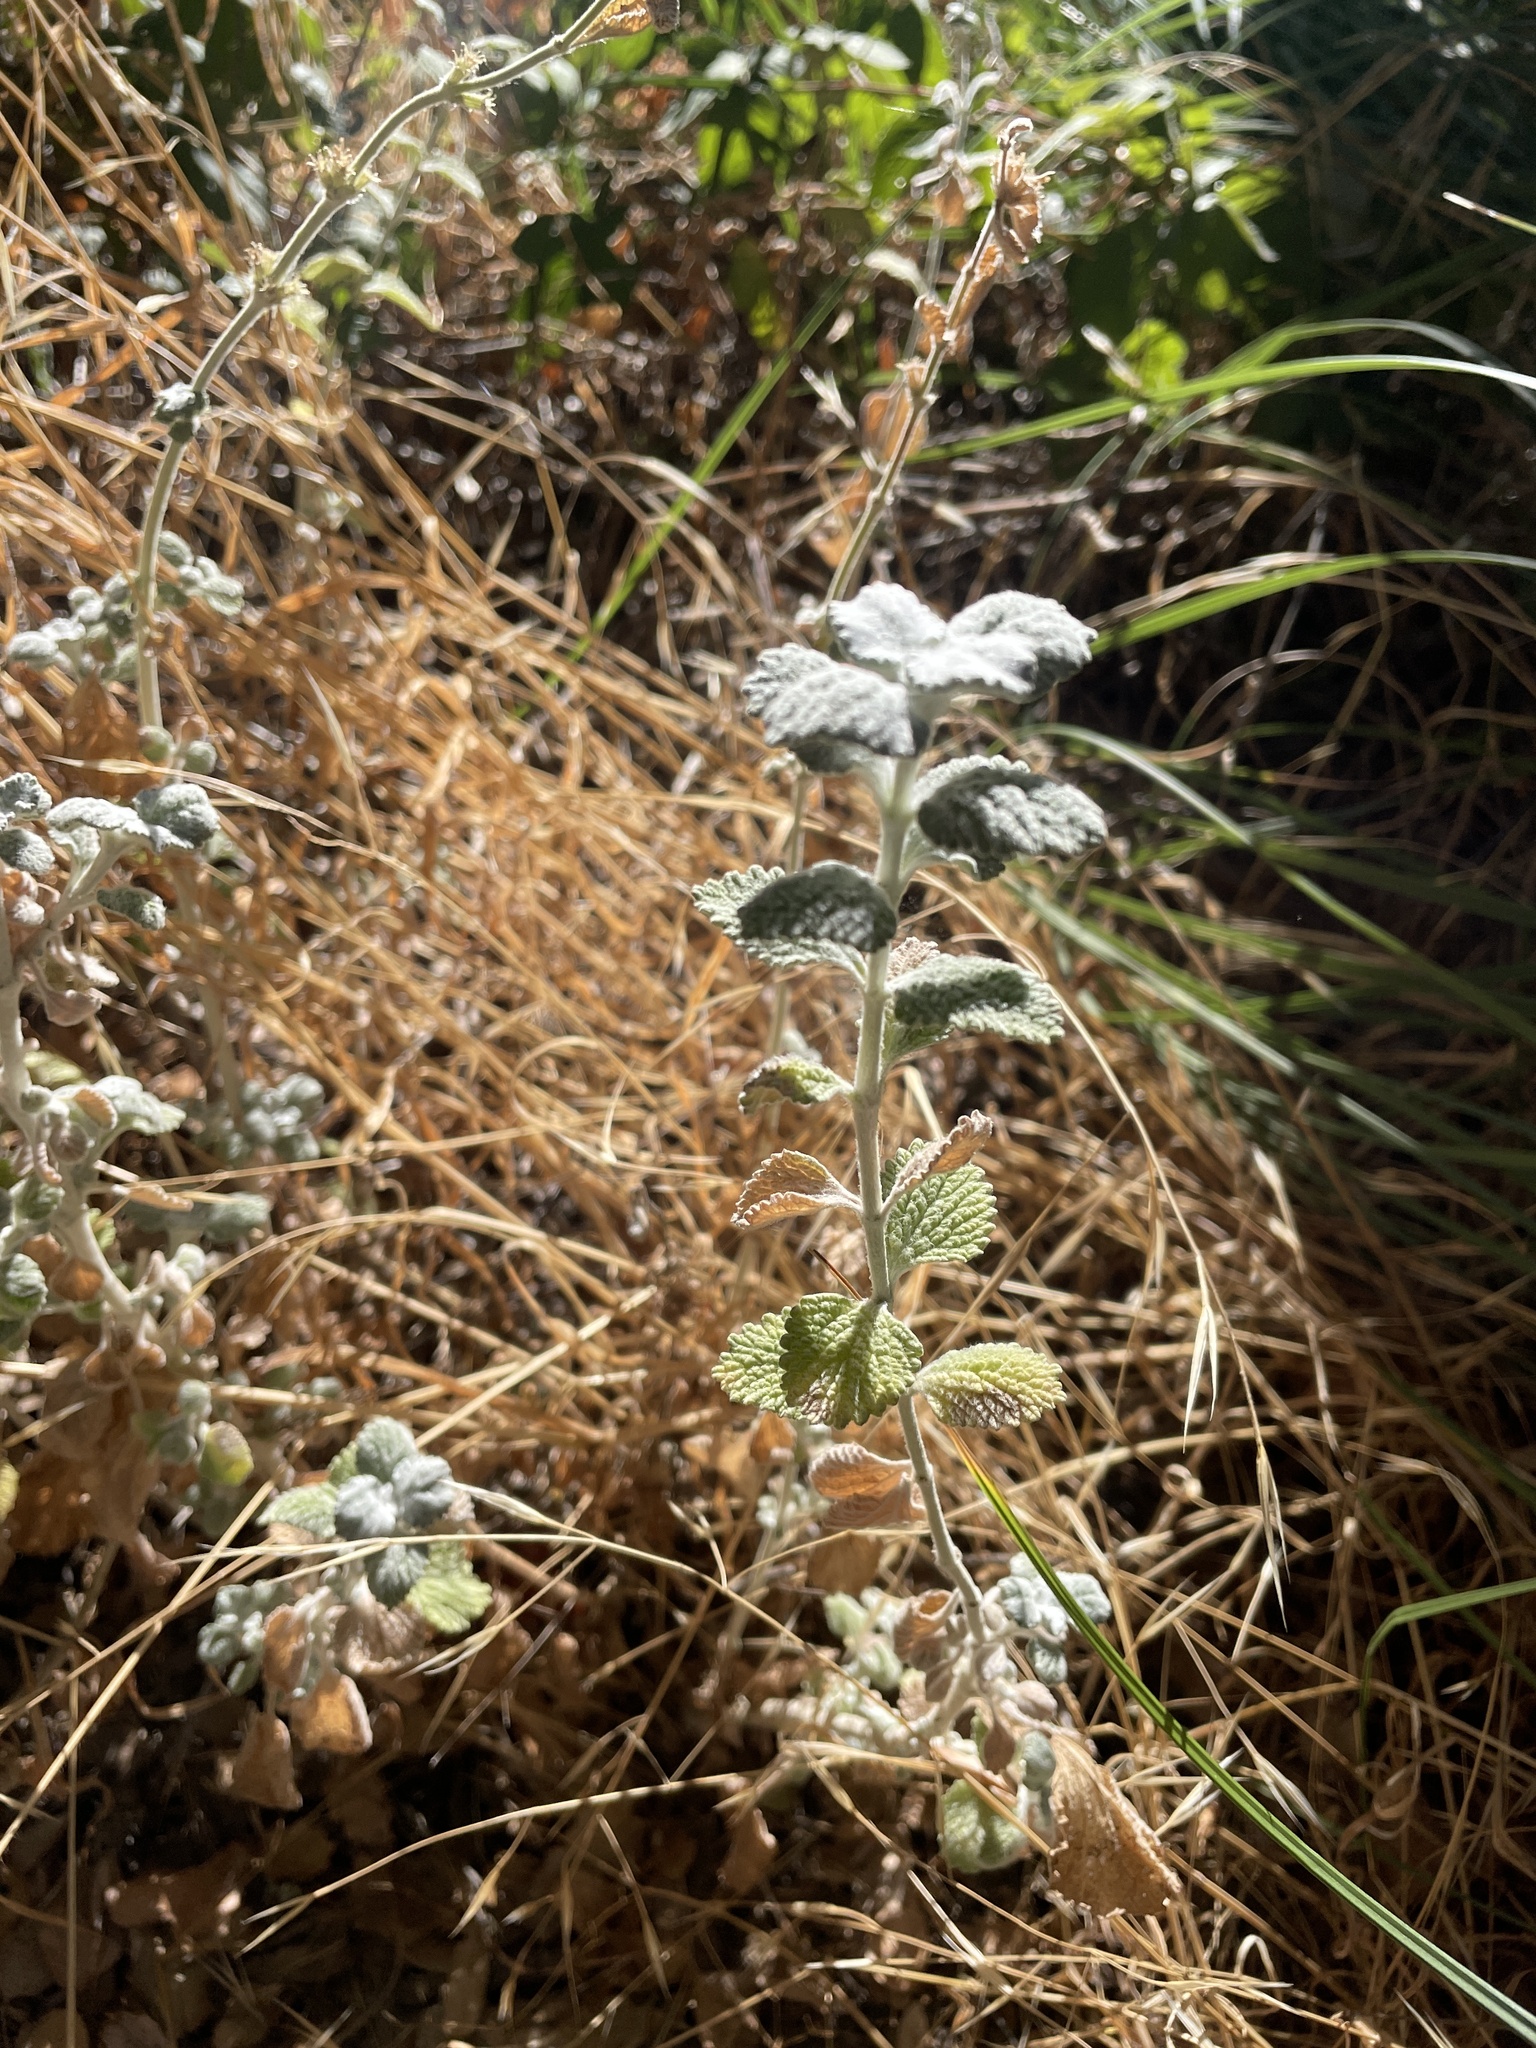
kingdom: Plantae
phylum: Tracheophyta
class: Magnoliopsida
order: Lamiales
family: Lamiaceae
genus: Marrubium
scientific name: Marrubium vulgare
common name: Horehound
